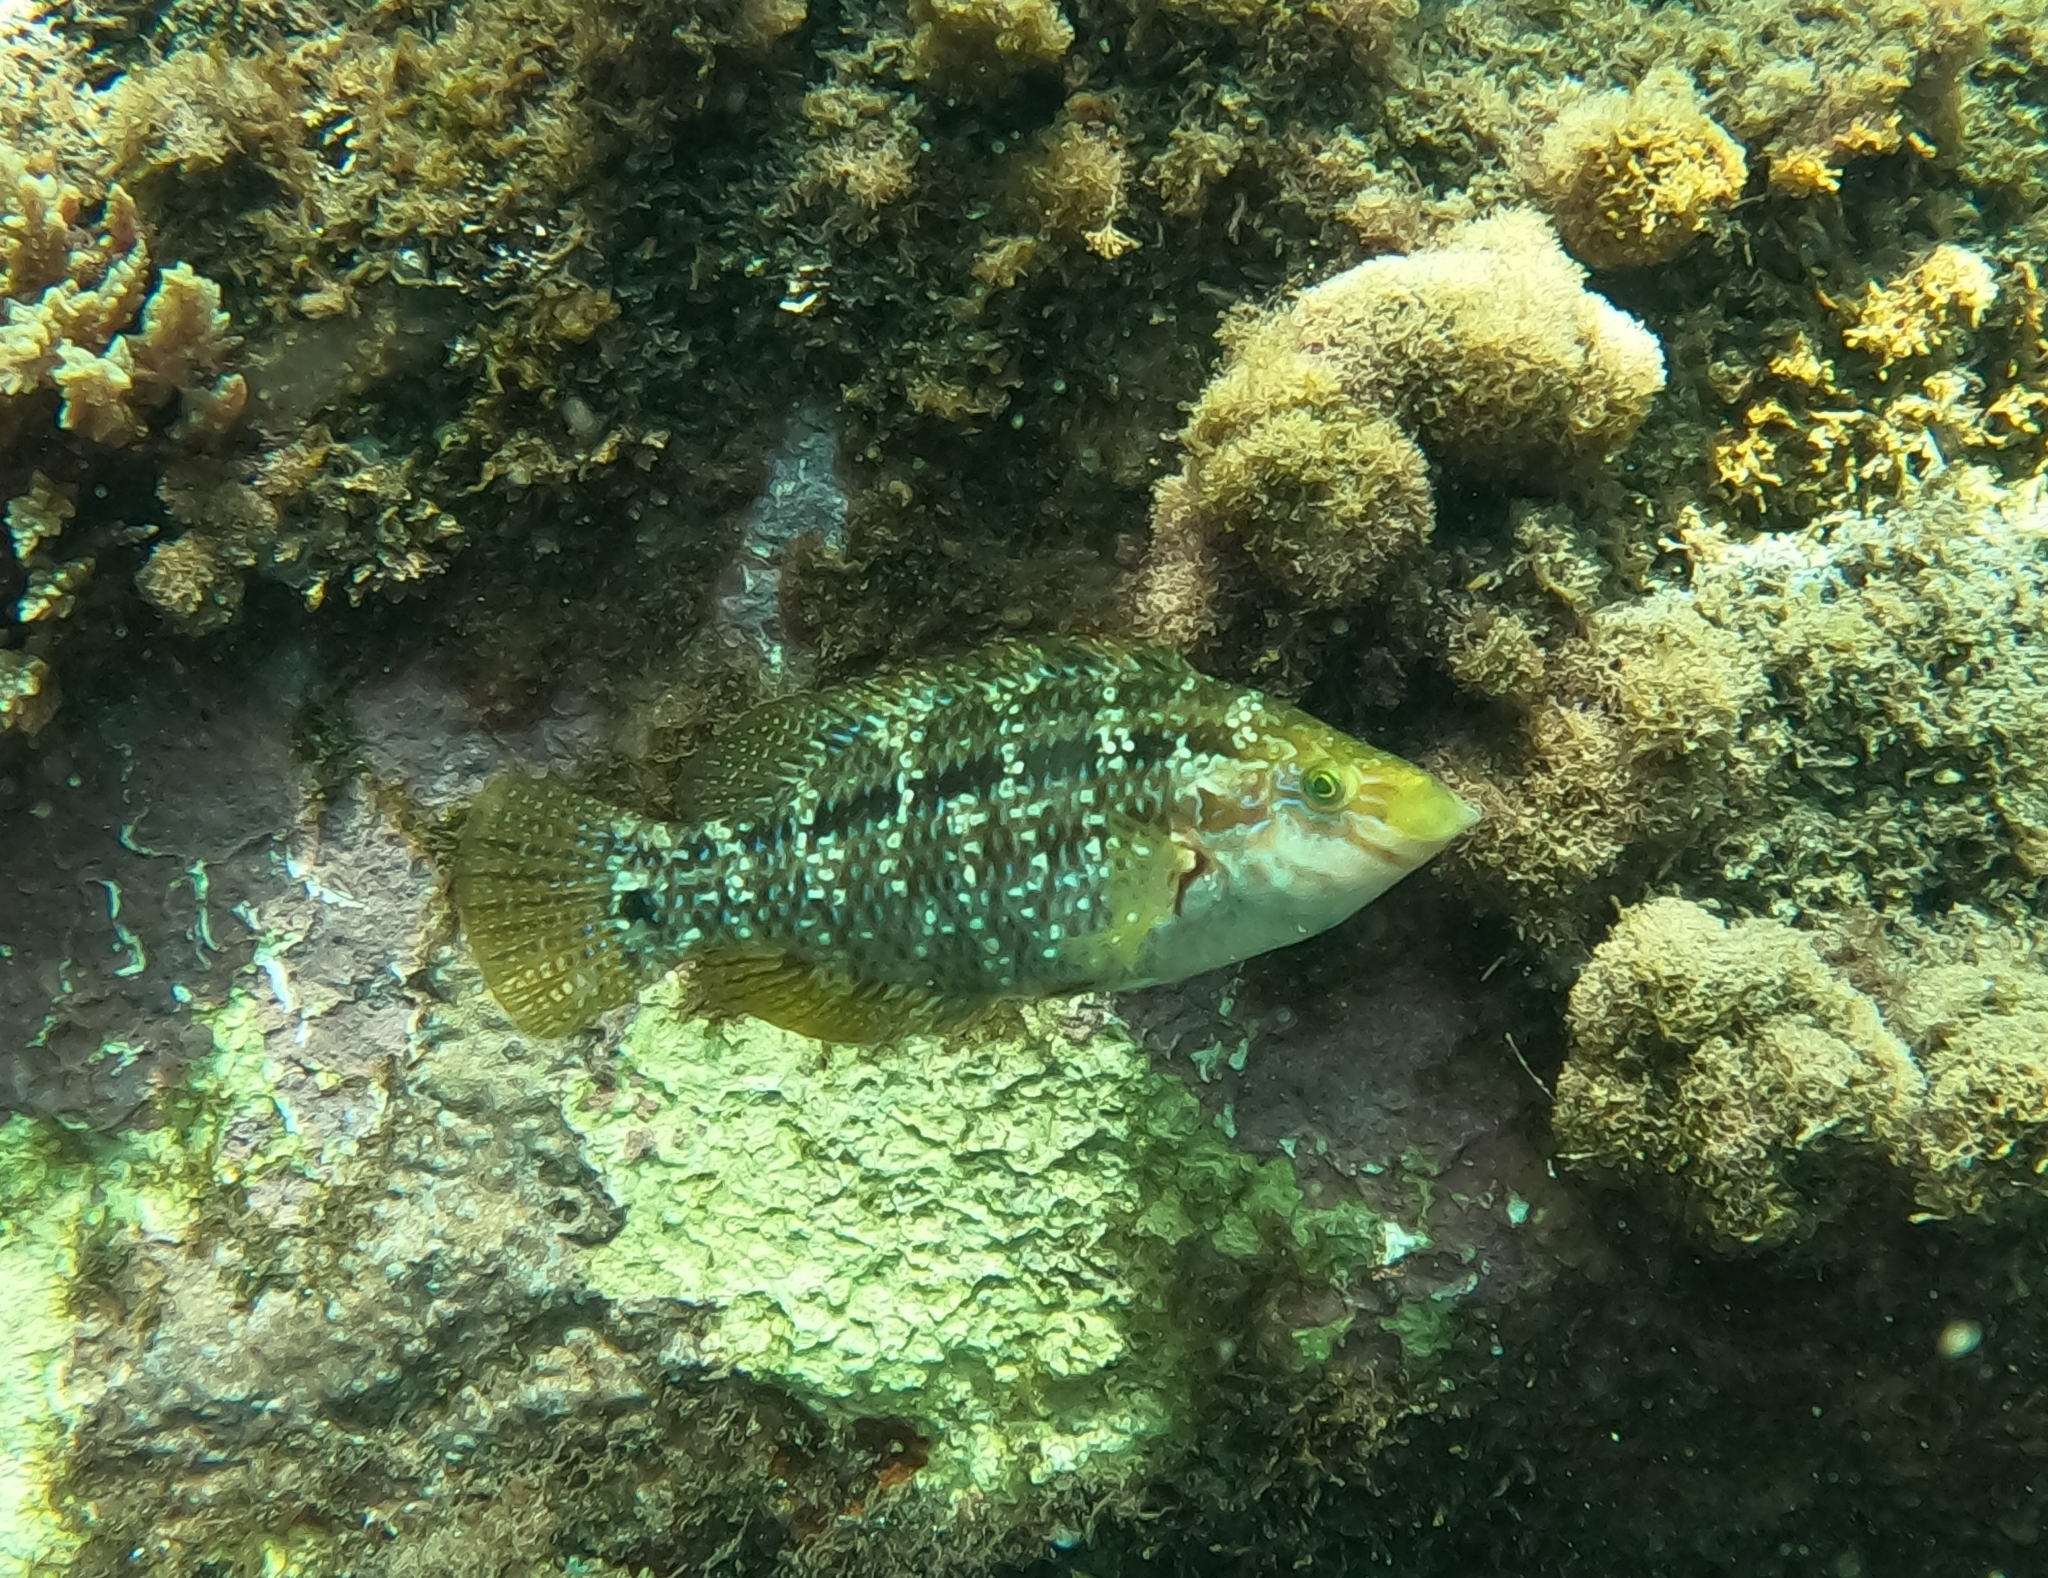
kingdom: Animalia
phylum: Chordata
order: Perciformes
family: Labridae
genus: Symphodus
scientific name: Symphodus trutta
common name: Emerald wrasse
